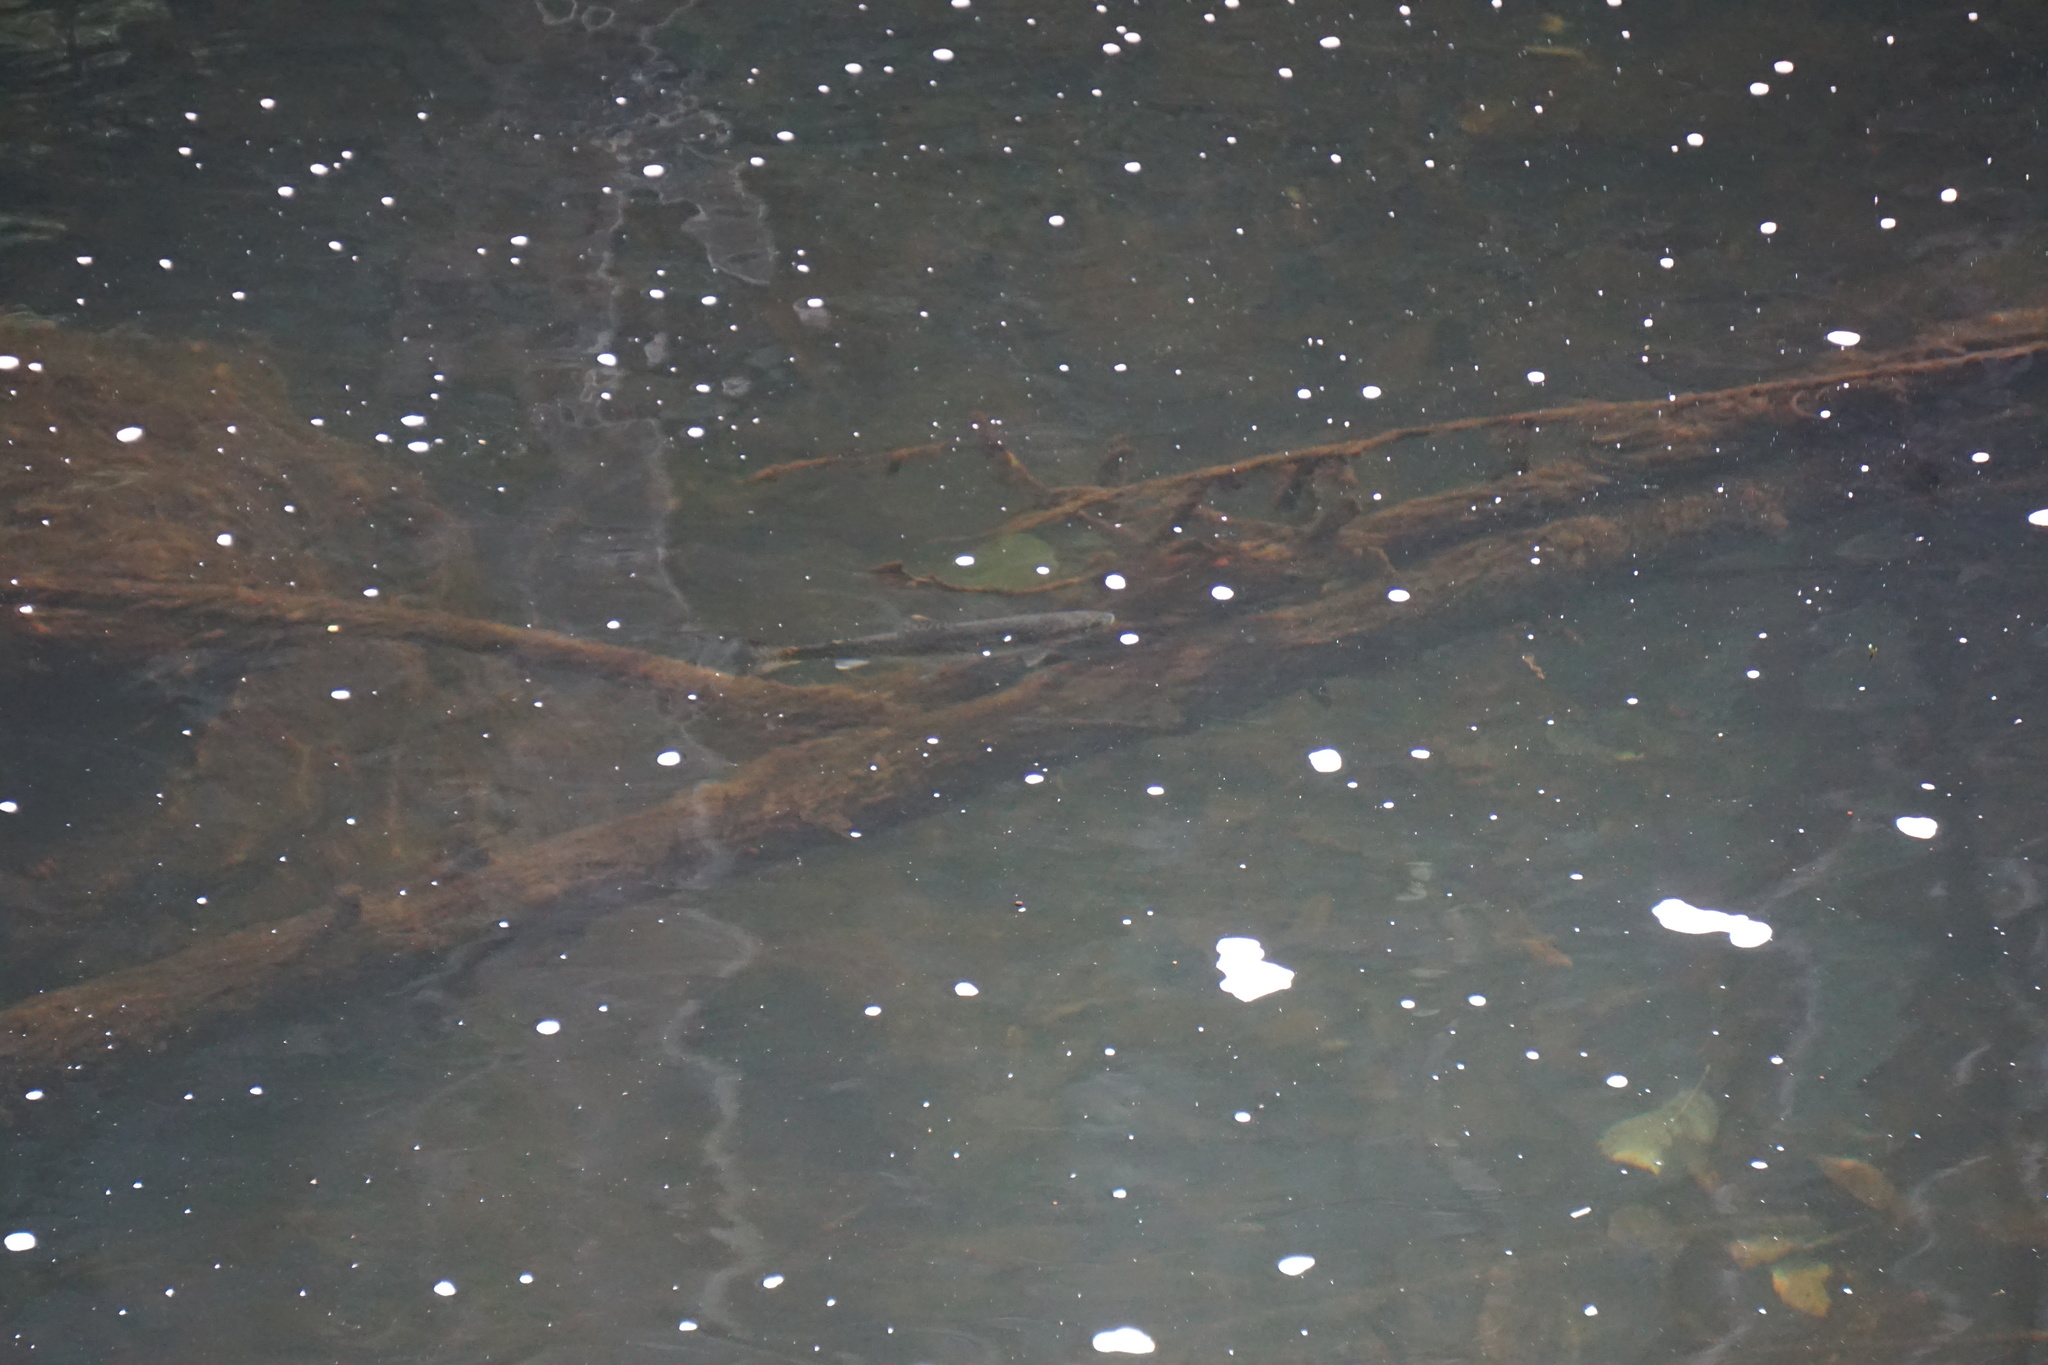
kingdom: Animalia
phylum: Chordata
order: Salmoniformes
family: Salmonidae
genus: Oncorhynchus
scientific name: Oncorhynchus mykiss
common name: Rainbow trout
